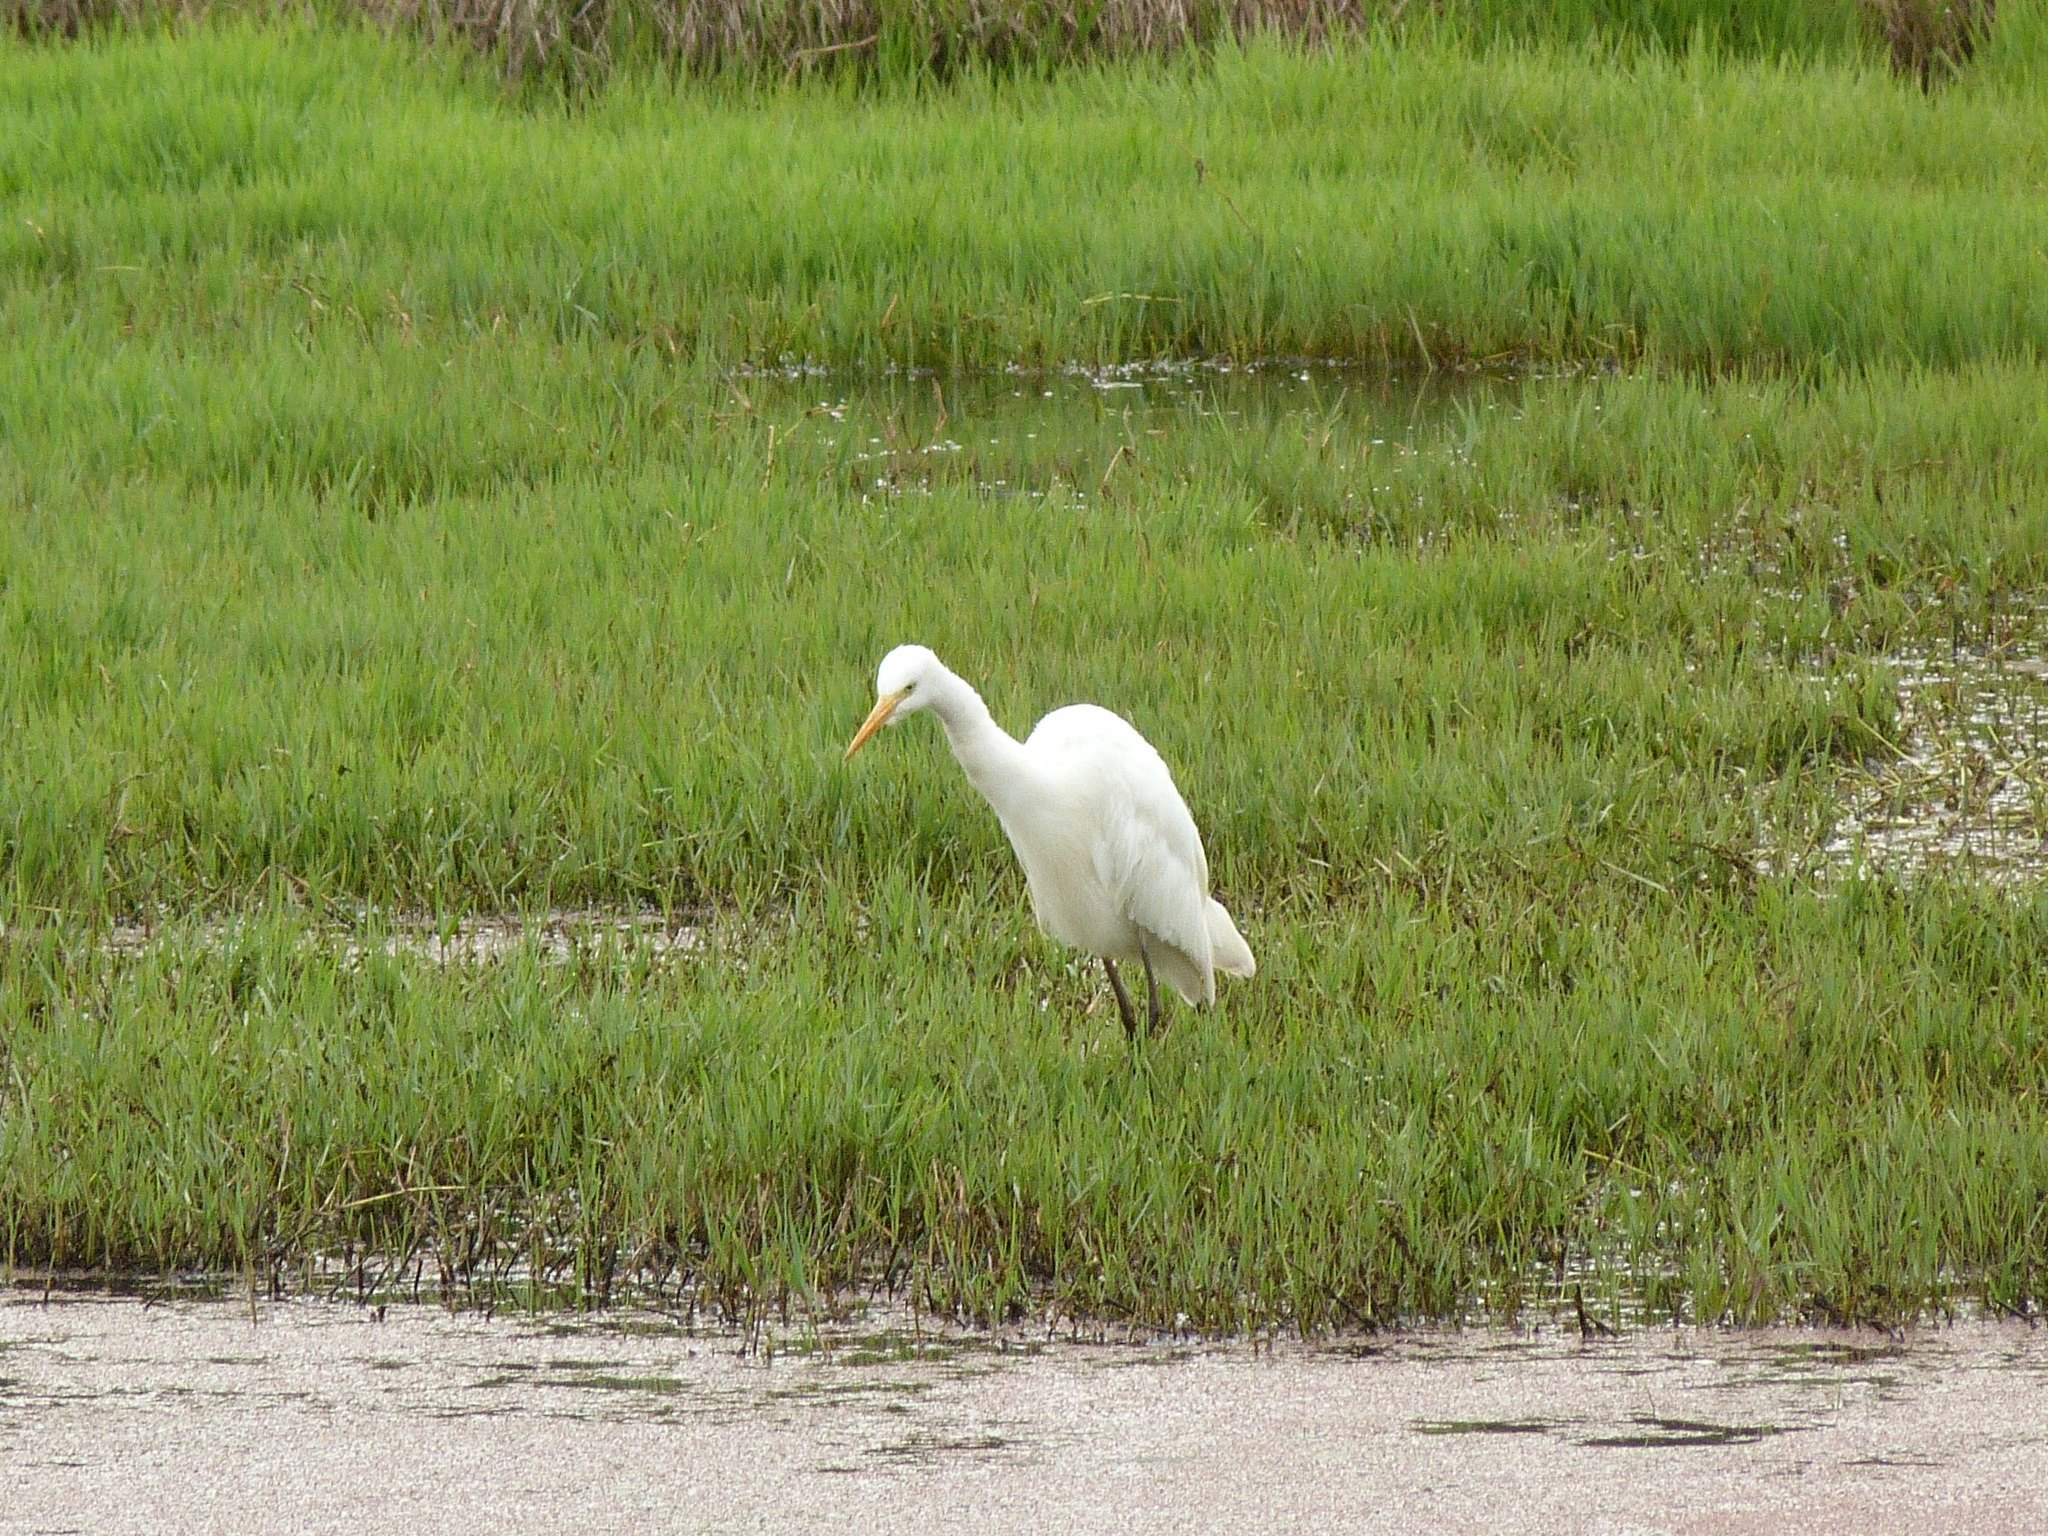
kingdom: Animalia
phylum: Chordata
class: Aves
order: Pelecaniformes
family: Ardeidae
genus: Egretta
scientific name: Egretta intermedia
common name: Intermediate egret
